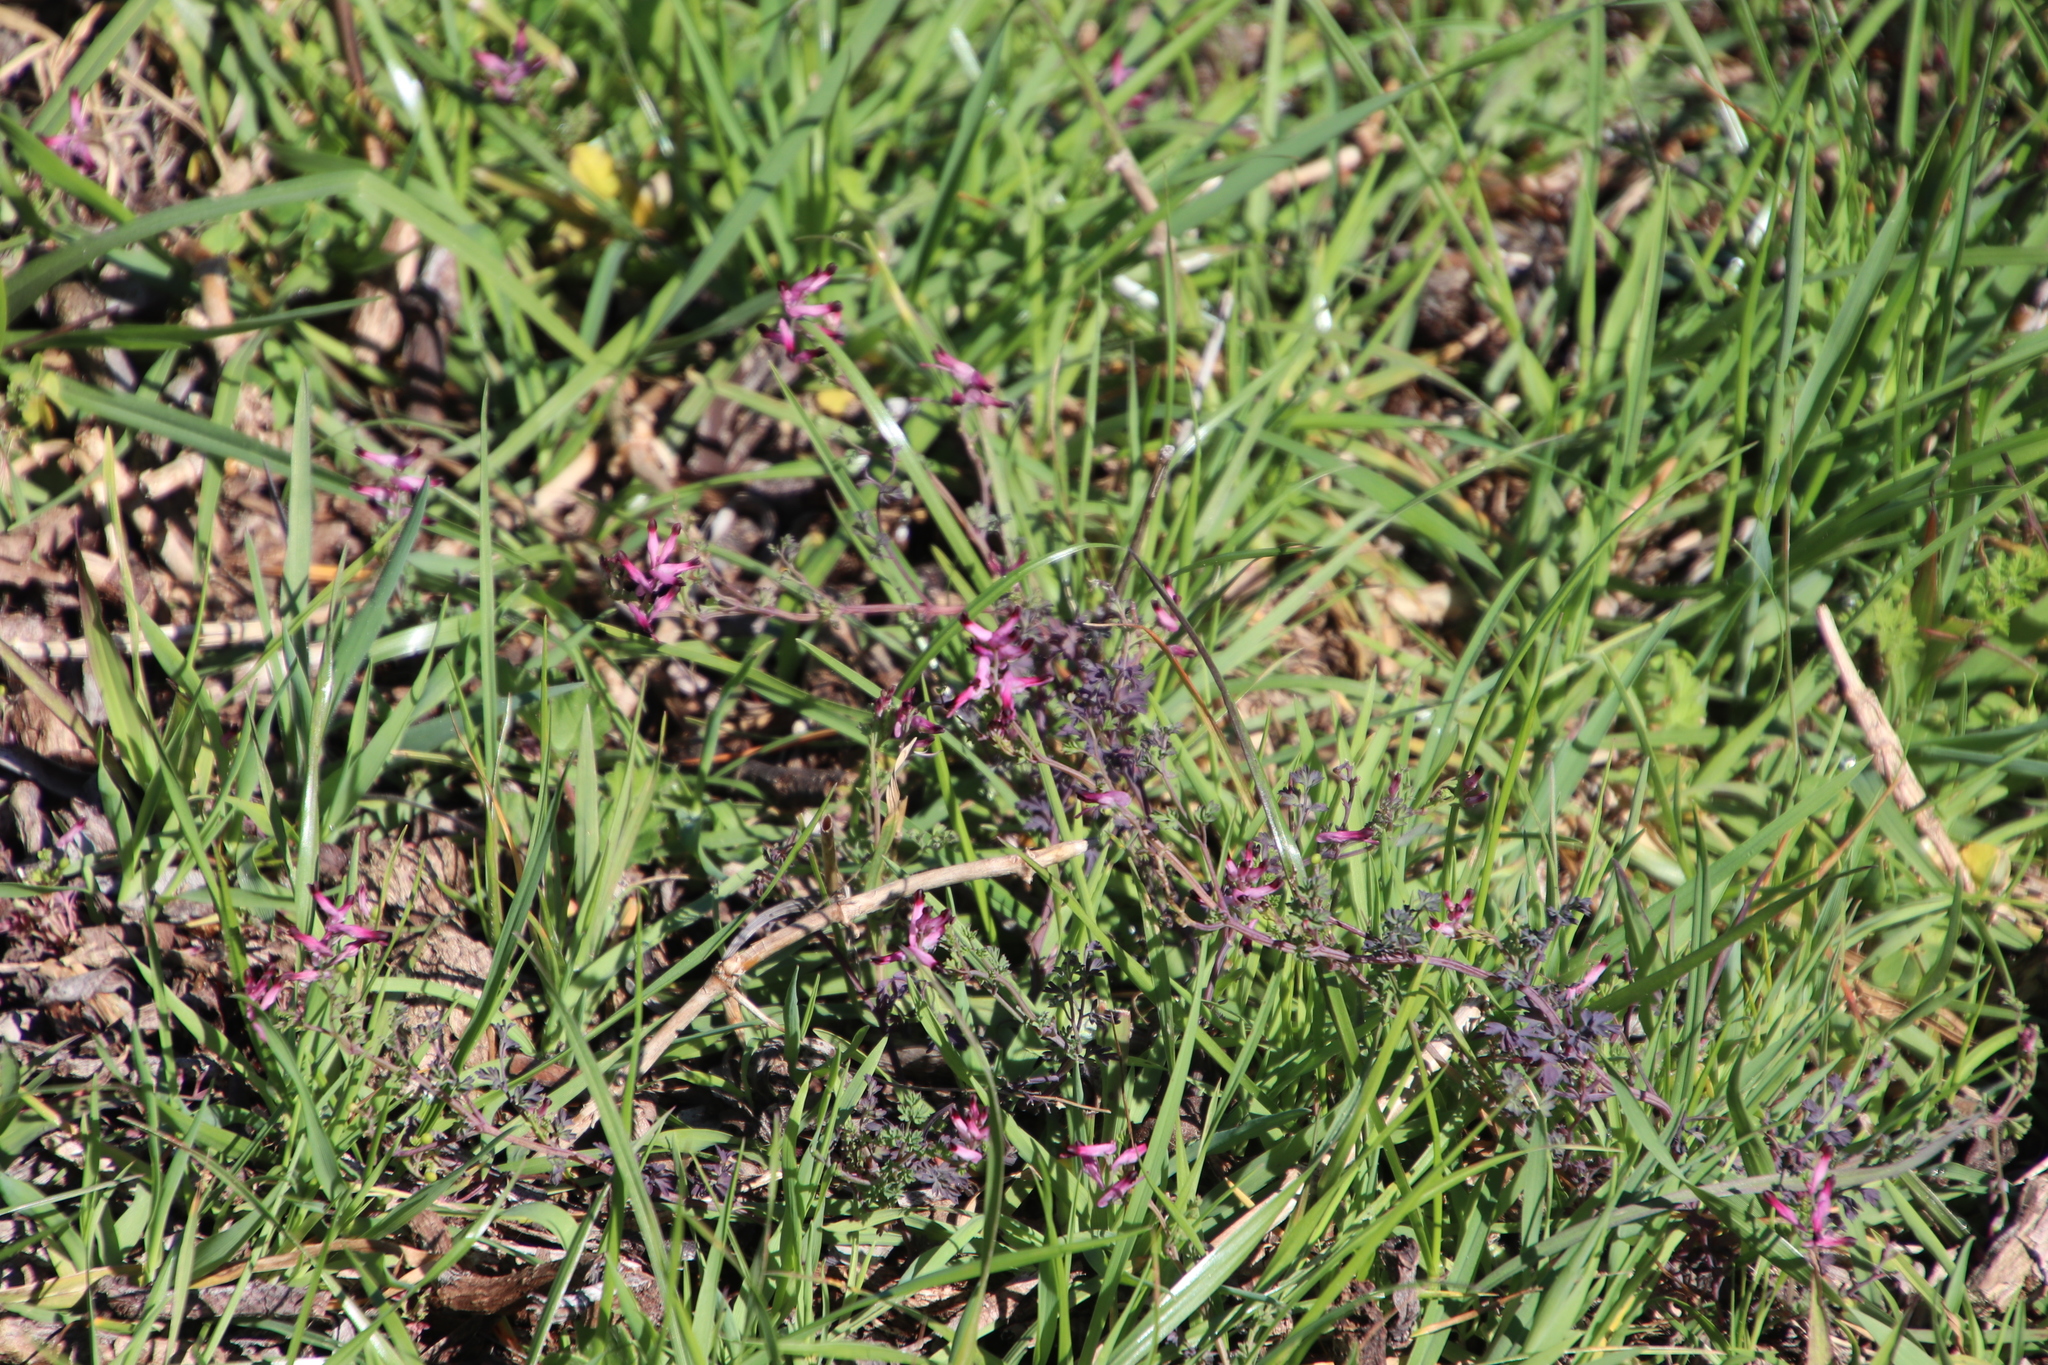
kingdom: Plantae
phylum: Tracheophyta
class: Magnoliopsida
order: Ranunculales
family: Papaveraceae
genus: Fumaria
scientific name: Fumaria muralis
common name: Common ramping-fumitory
